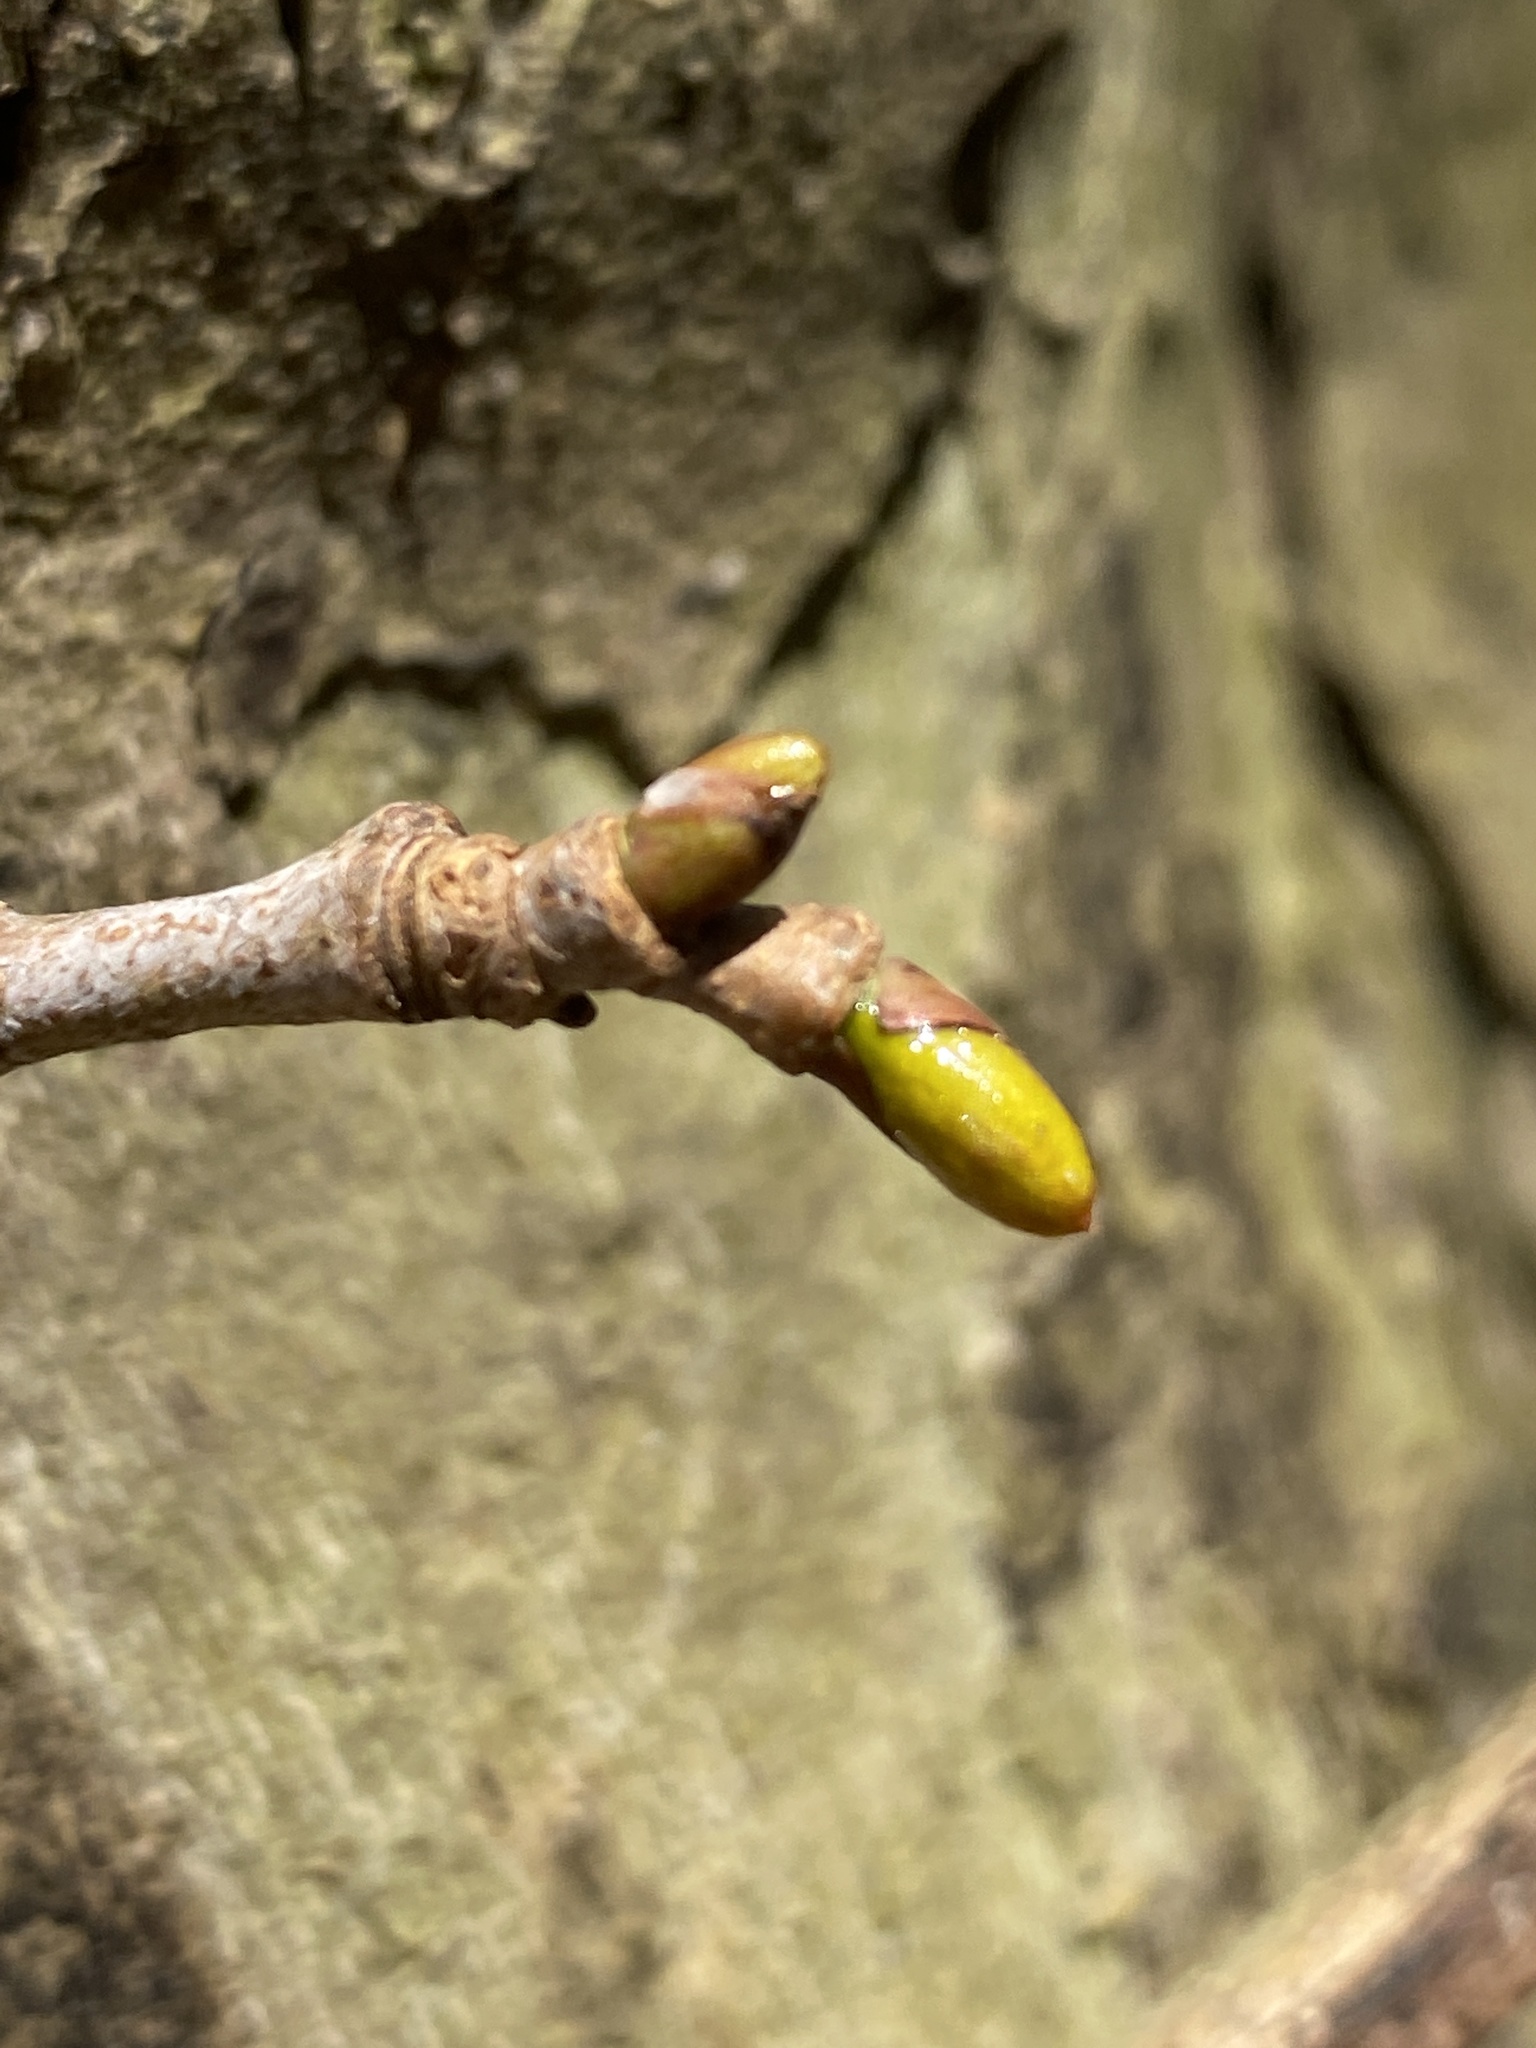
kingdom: Plantae
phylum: Tracheophyta
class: Magnoliopsida
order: Proteales
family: Platanaceae
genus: Platanus
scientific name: Platanus occidentalis
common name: American sycamore
